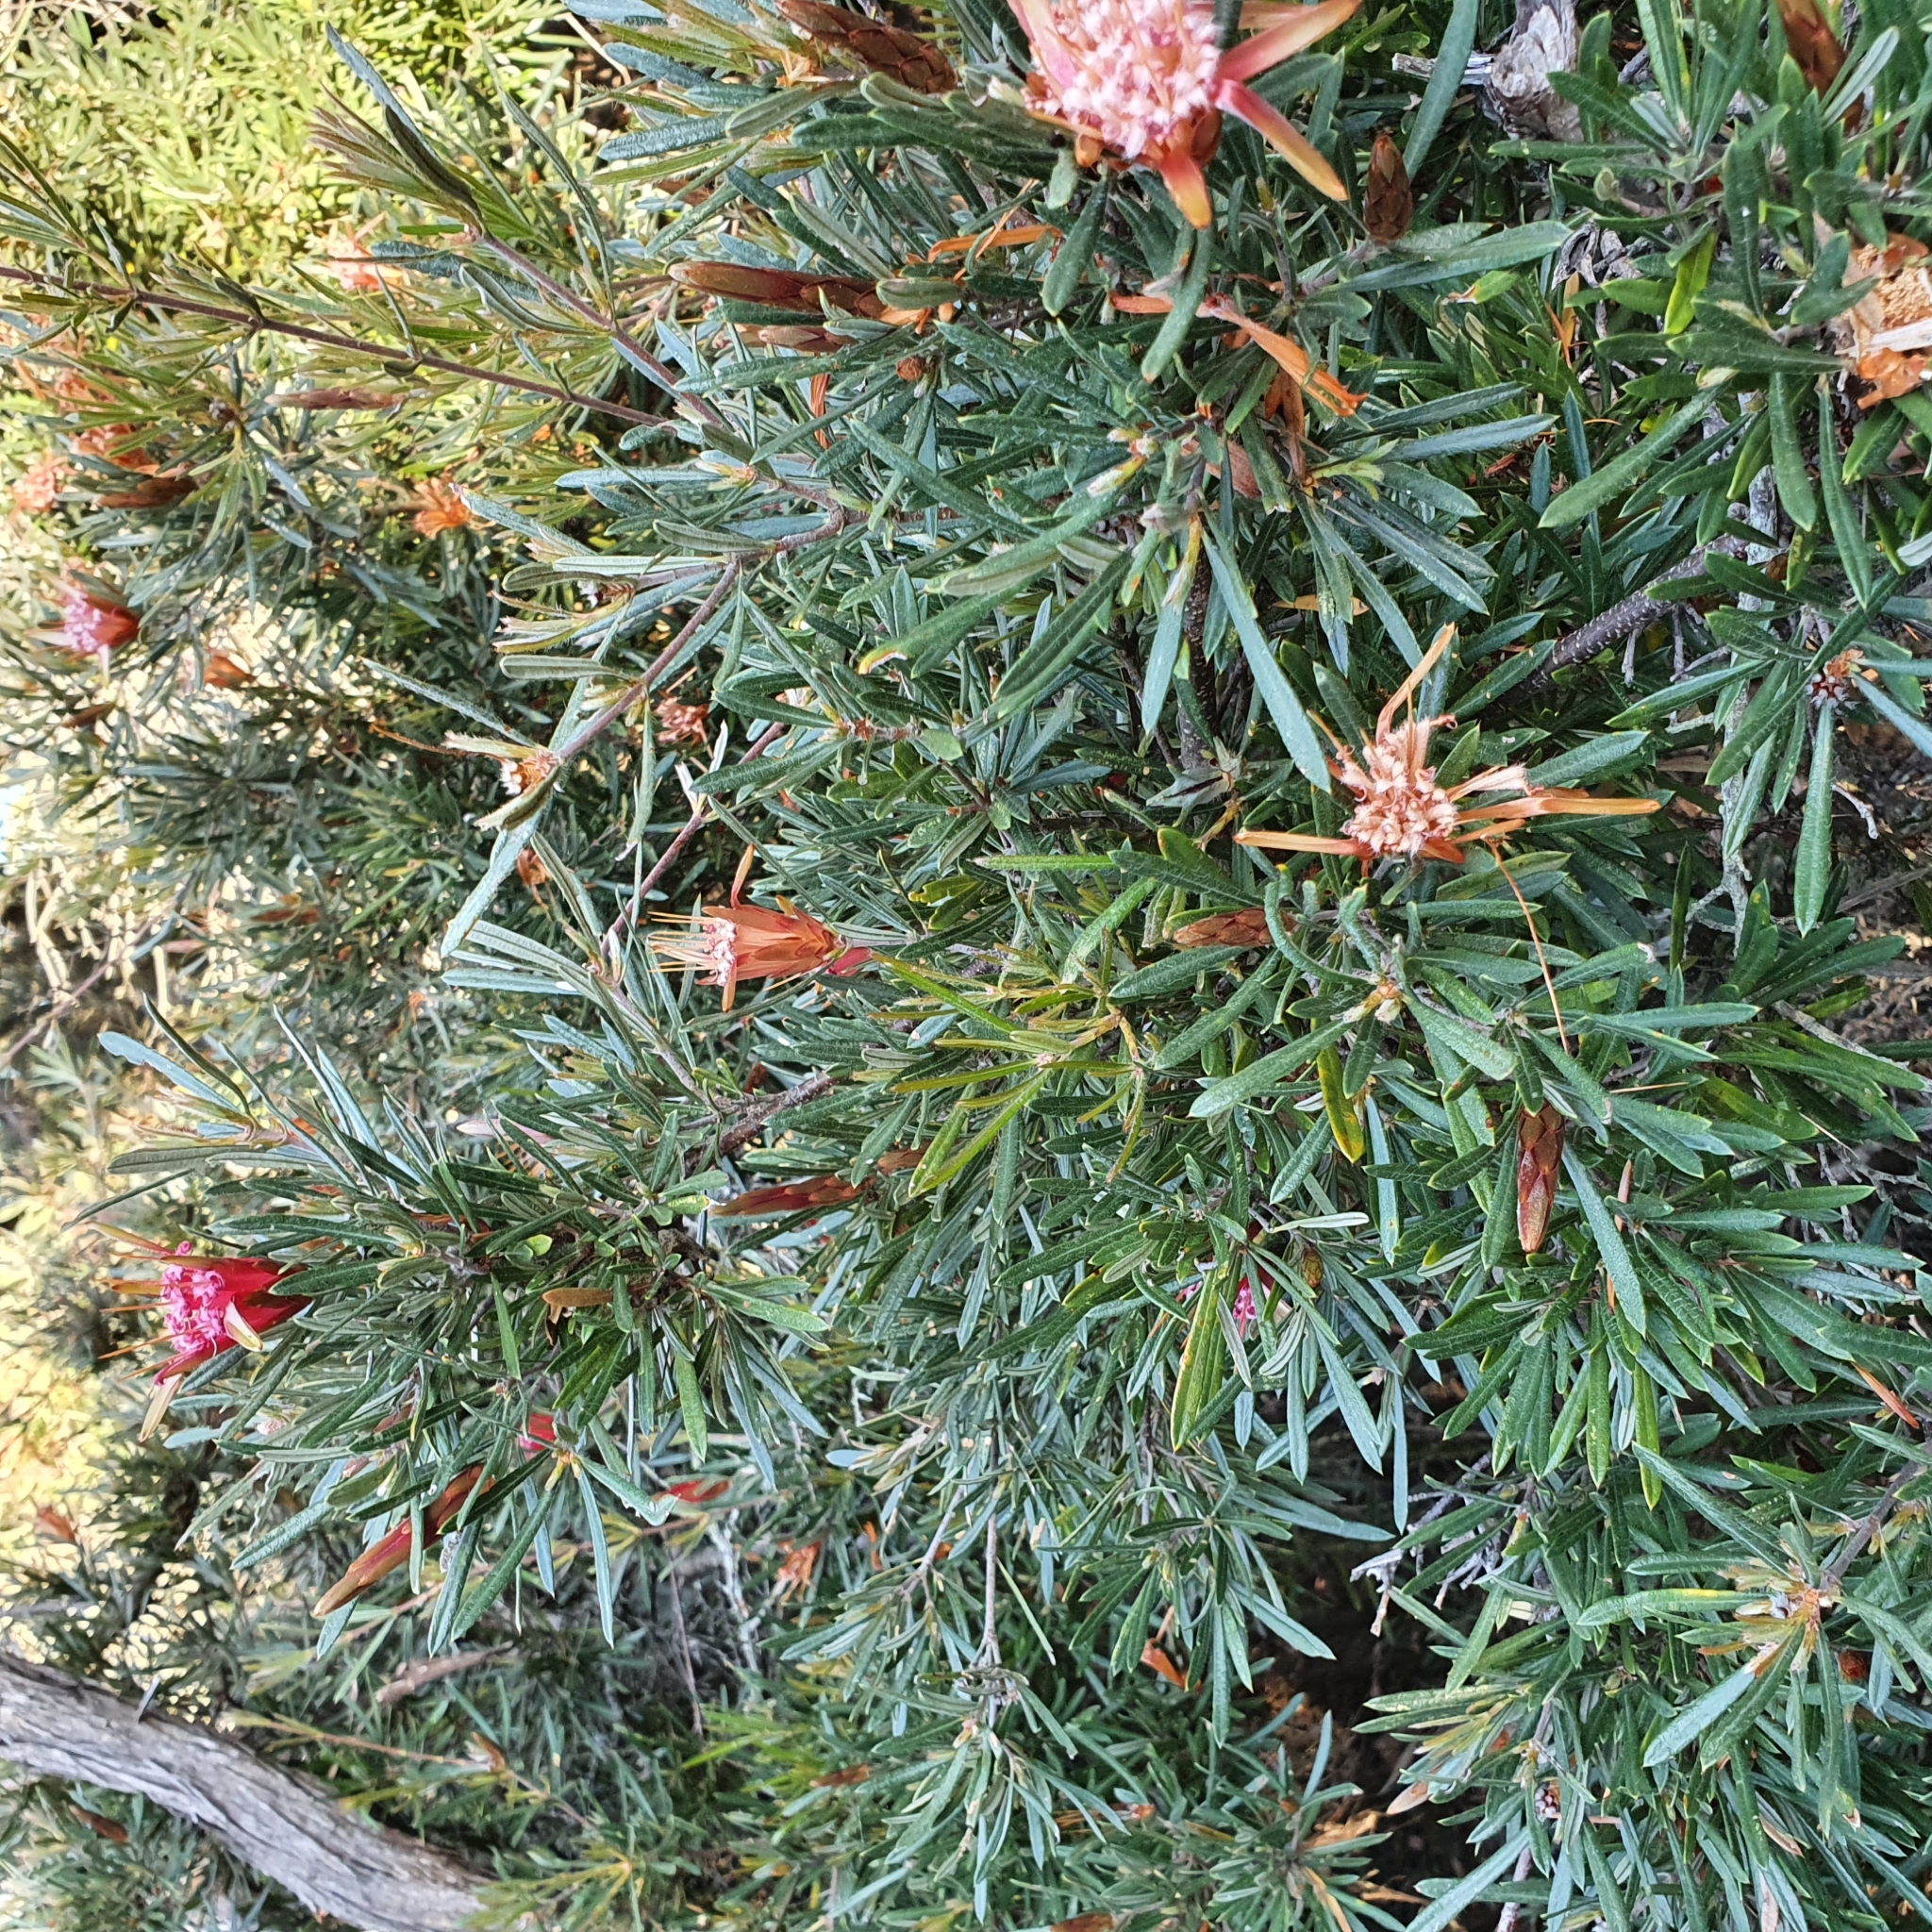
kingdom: Plantae
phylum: Tracheophyta
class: Magnoliopsida
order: Proteales
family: Proteaceae
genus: Lambertia
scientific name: Lambertia formosa
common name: Mountain-devil
